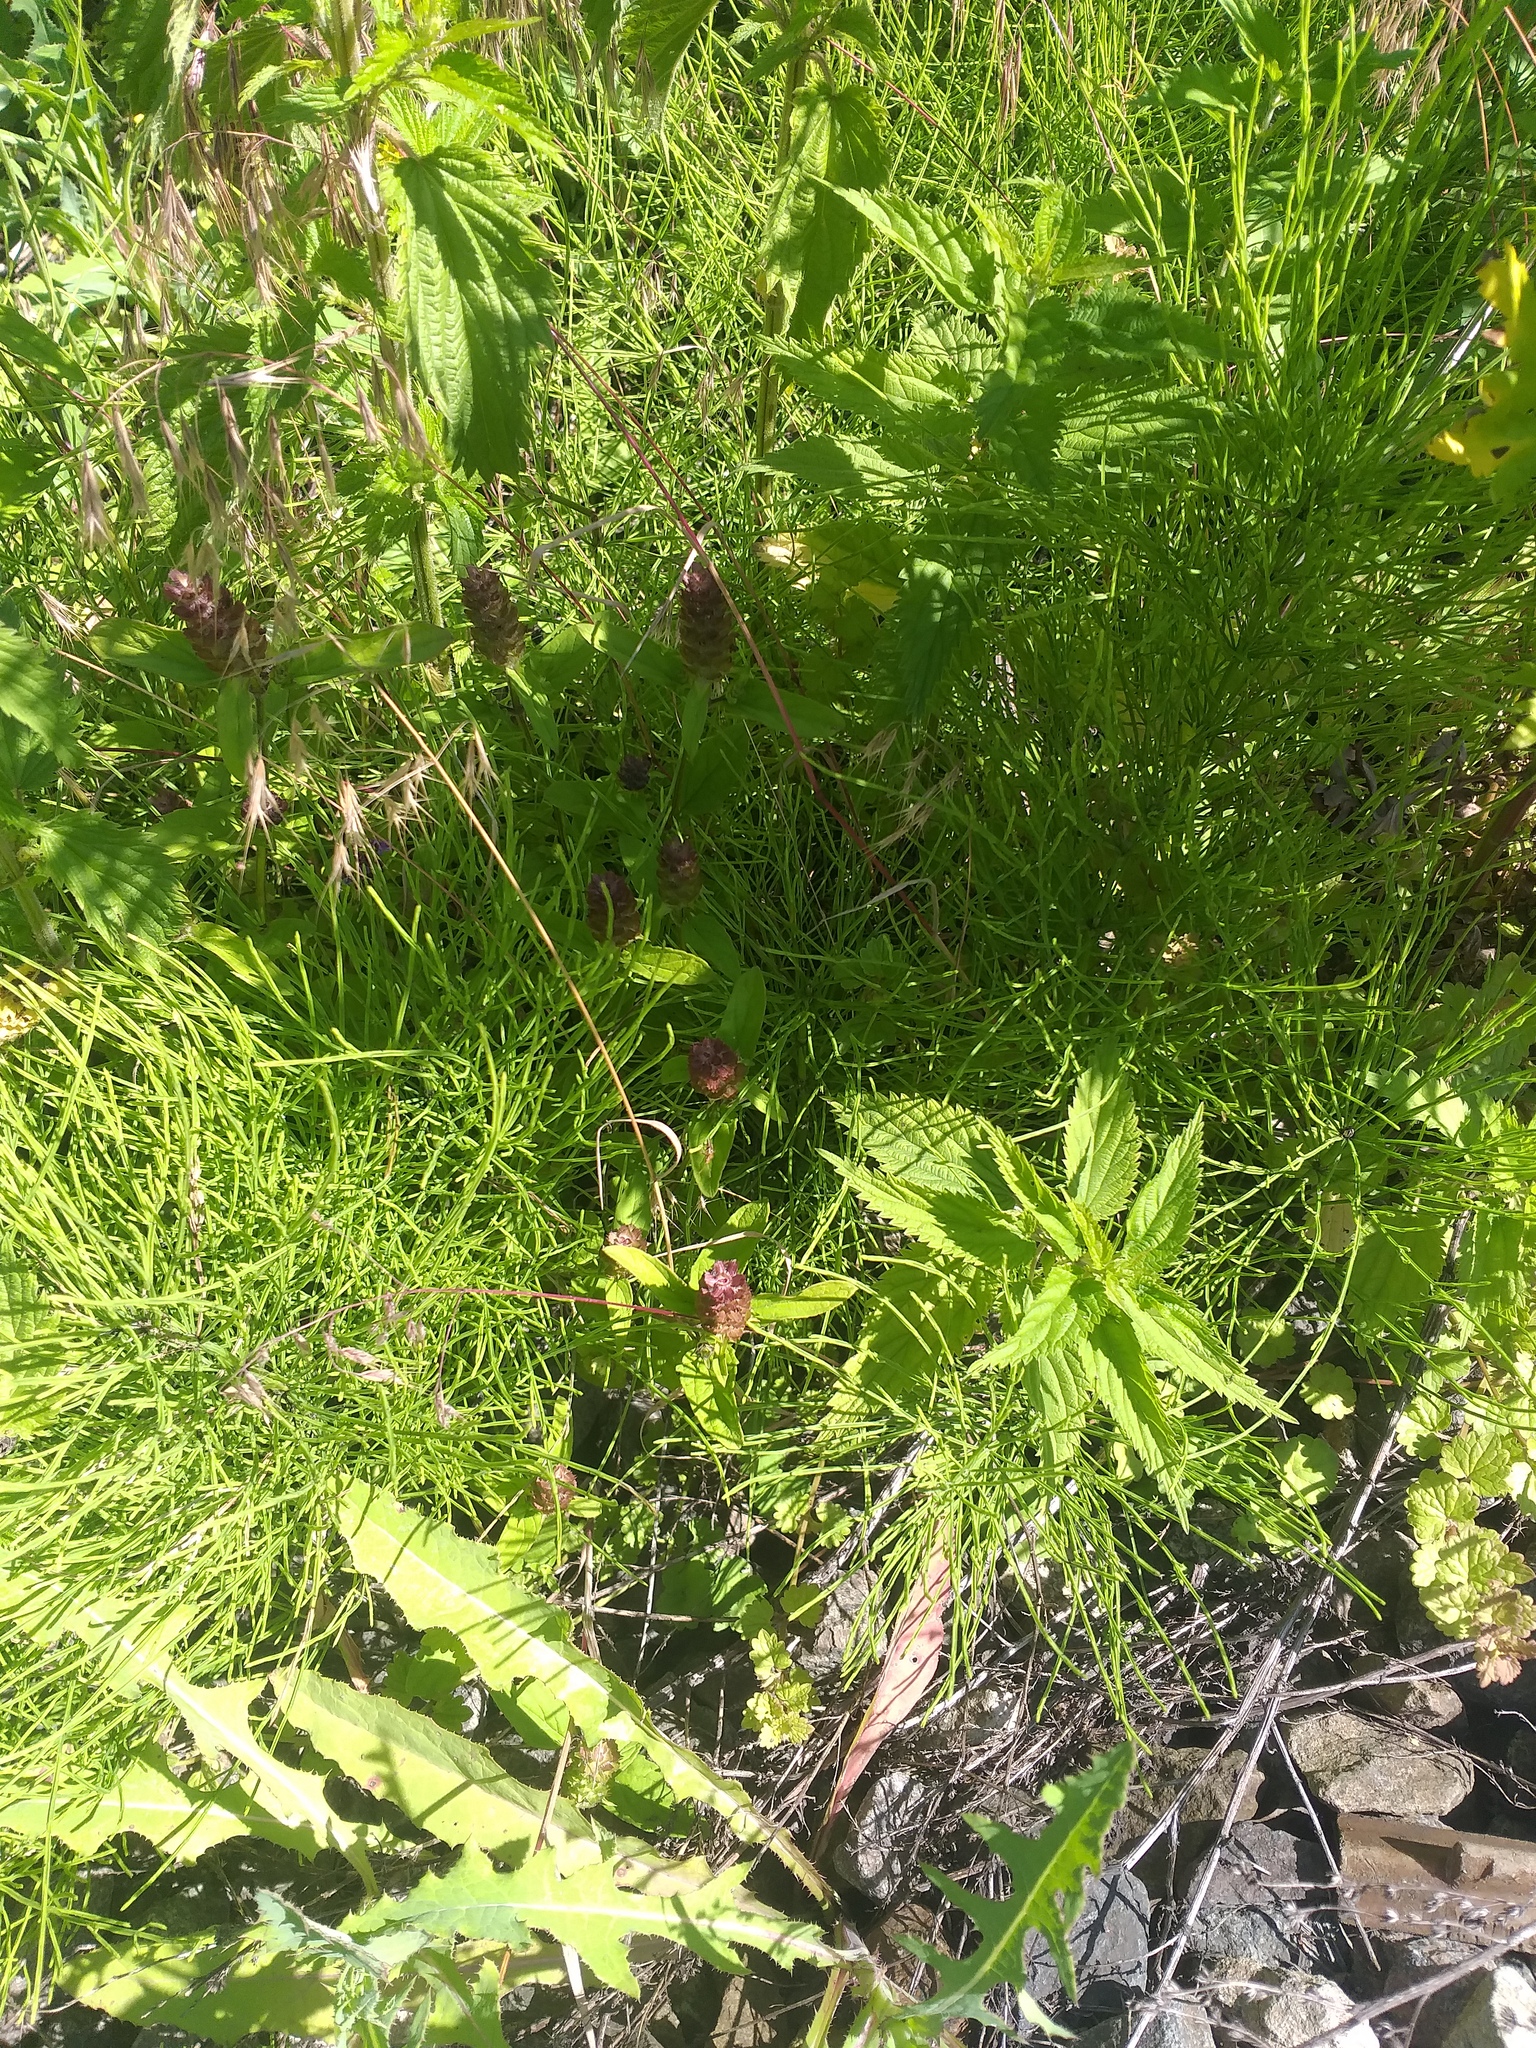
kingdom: Plantae
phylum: Tracheophyta
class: Magnoliopsida
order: Lamiales
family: Lamiaceae
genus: Prunella
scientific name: Prunella vulgaris
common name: Heal-all
